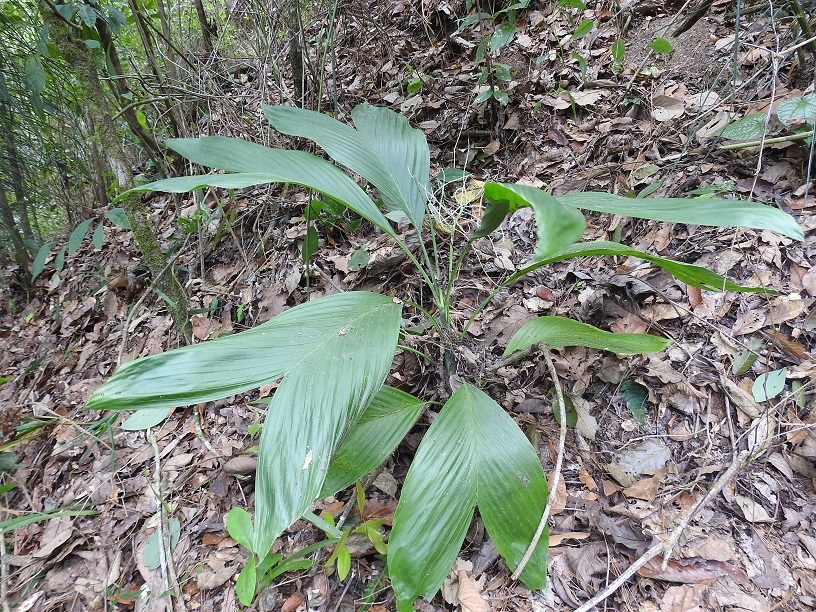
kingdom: Plantae
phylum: Tracheophyta
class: Liliopsida
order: Arecales
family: Arecaceae
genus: Chamaedorea
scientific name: Chamaedorea ernesti-augusti
